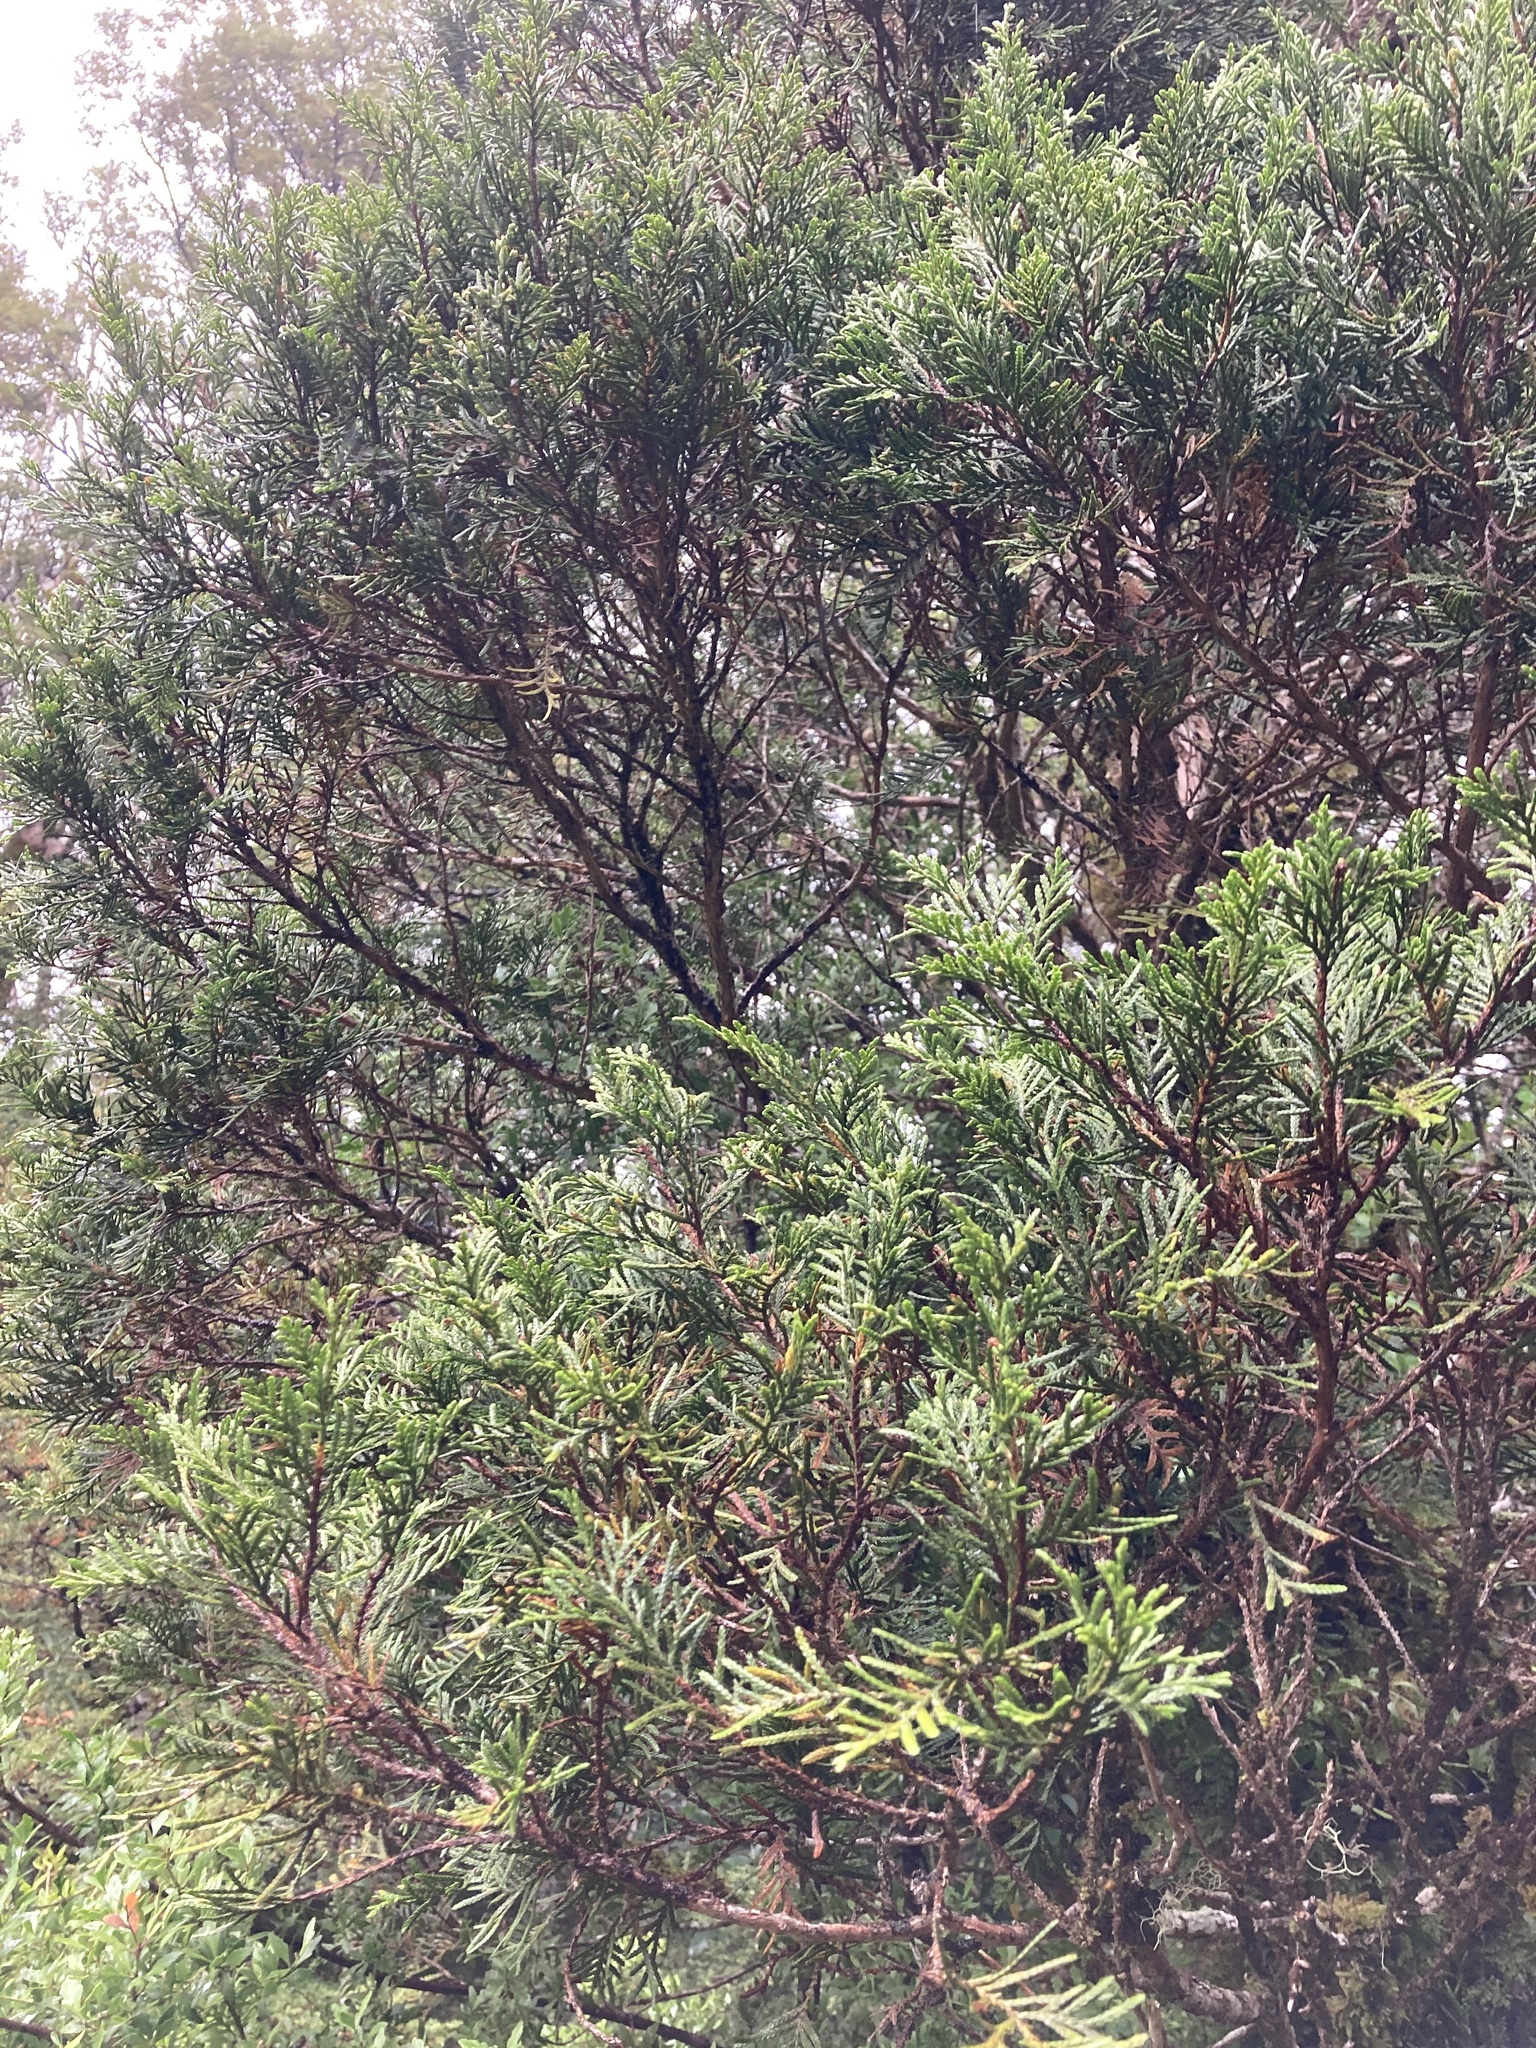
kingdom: Plantae
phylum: Tracheophyta
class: Pinopsida
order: Pinales
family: Cupressaceae
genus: Libocedrus
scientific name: Libocedrus bidwillii
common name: Cedar
